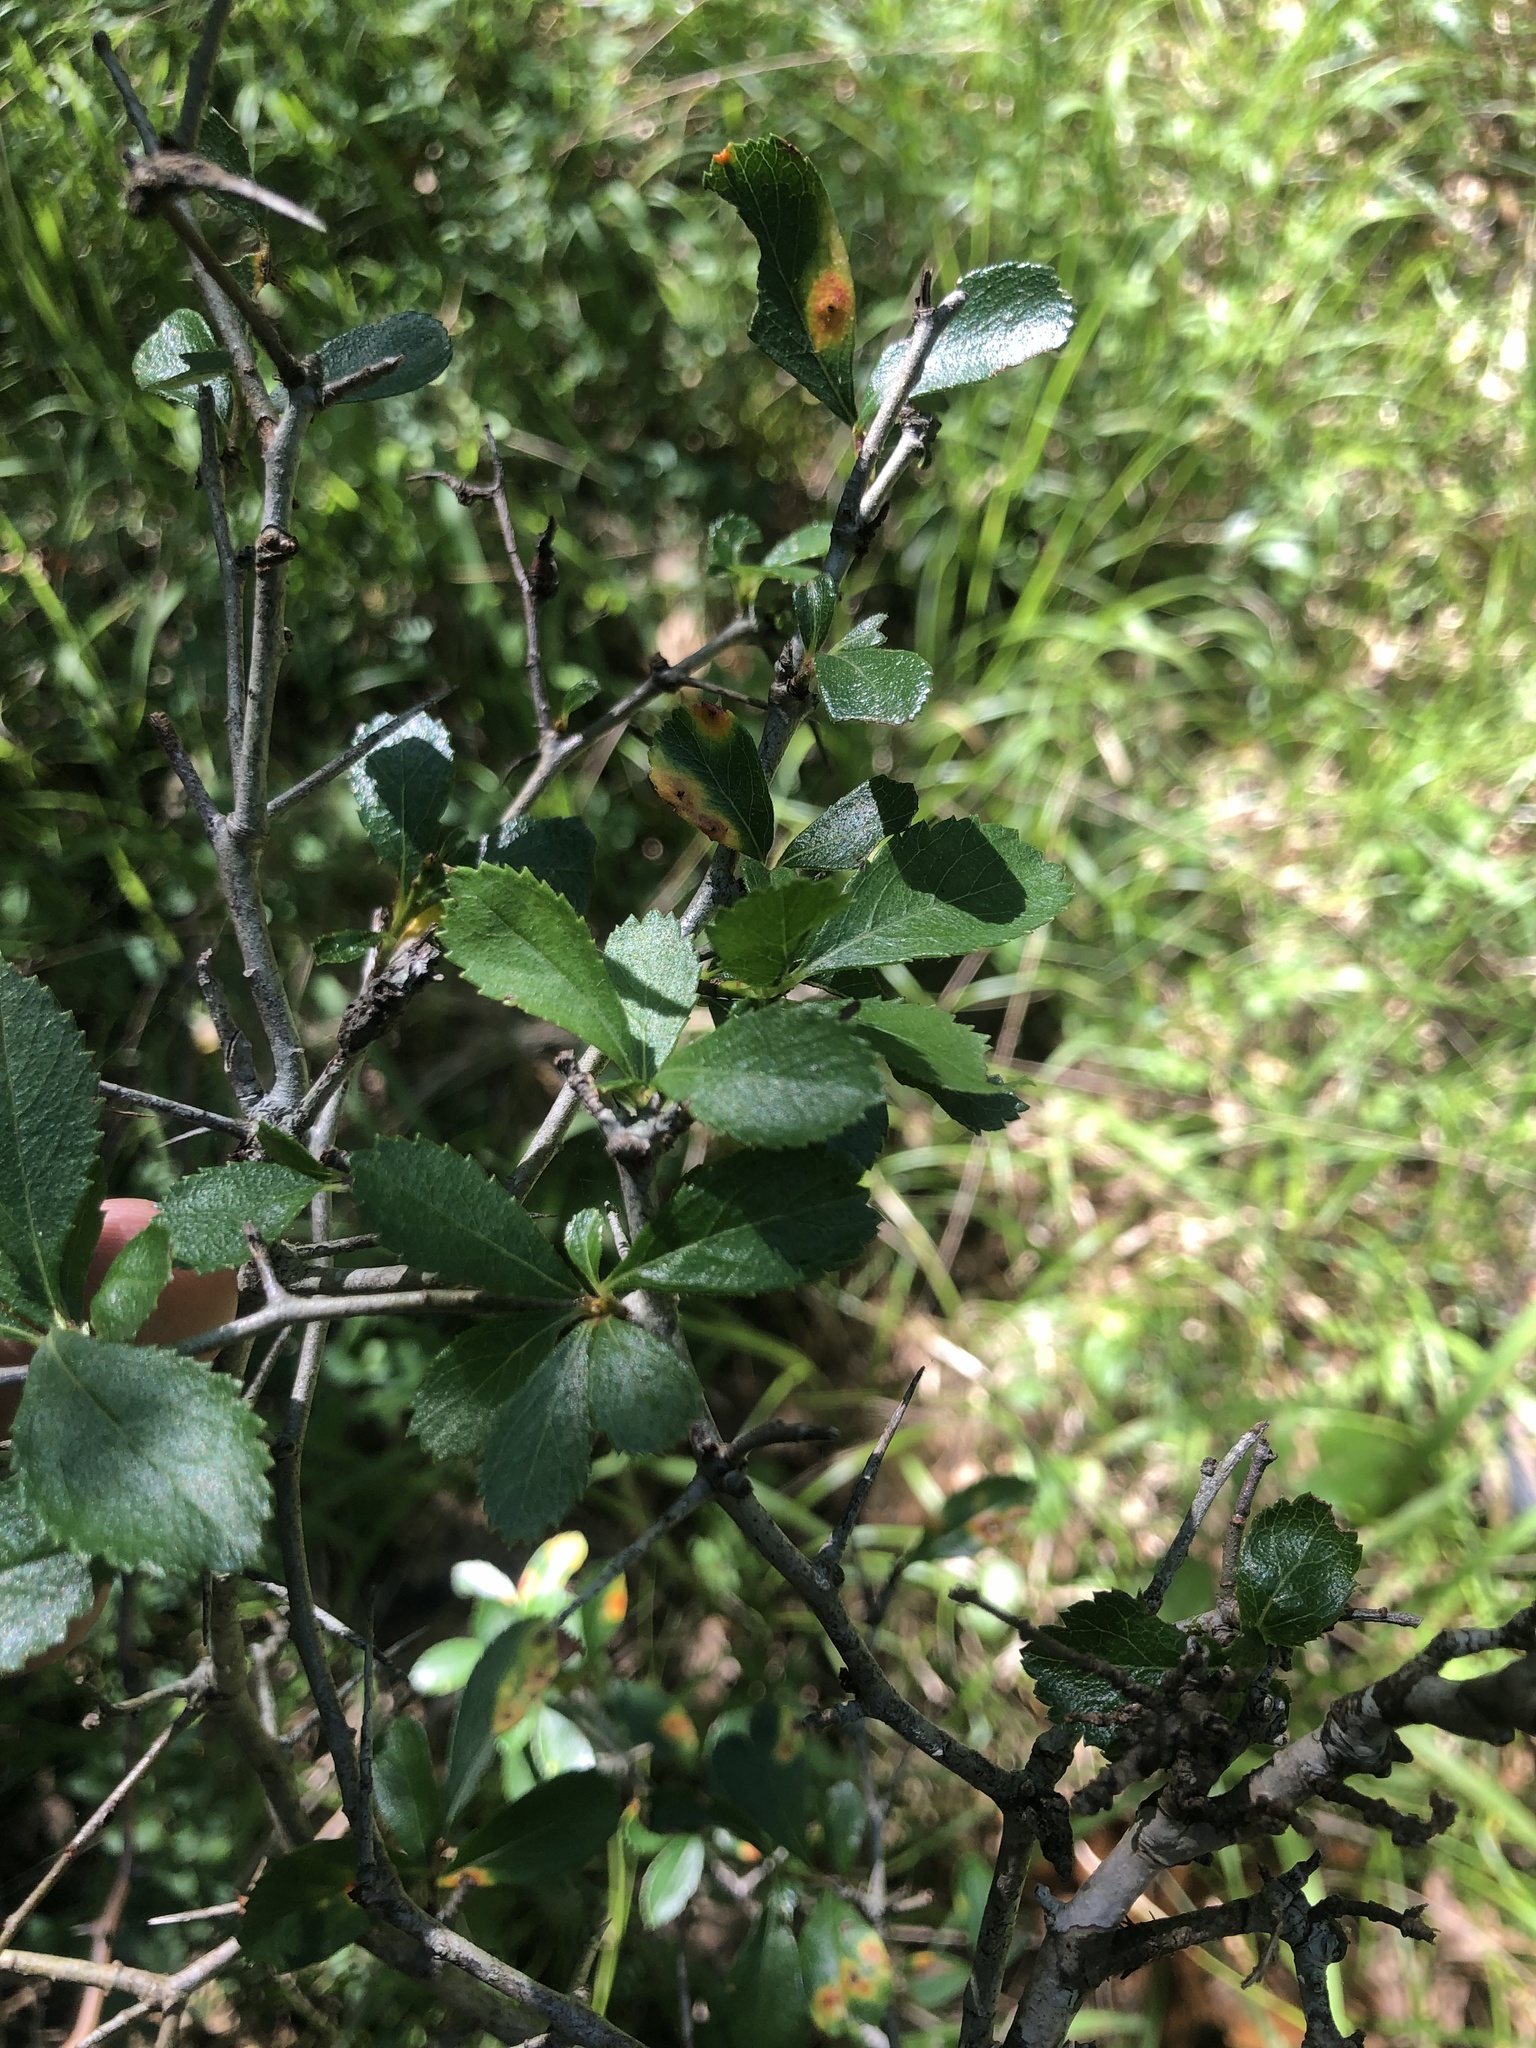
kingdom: Plantae
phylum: Tracheophyta
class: Magnoliopsida
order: Rosales
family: Rosaceae
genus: Crataegus
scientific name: Crataegus berberifolia
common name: Barberry hawthorn
